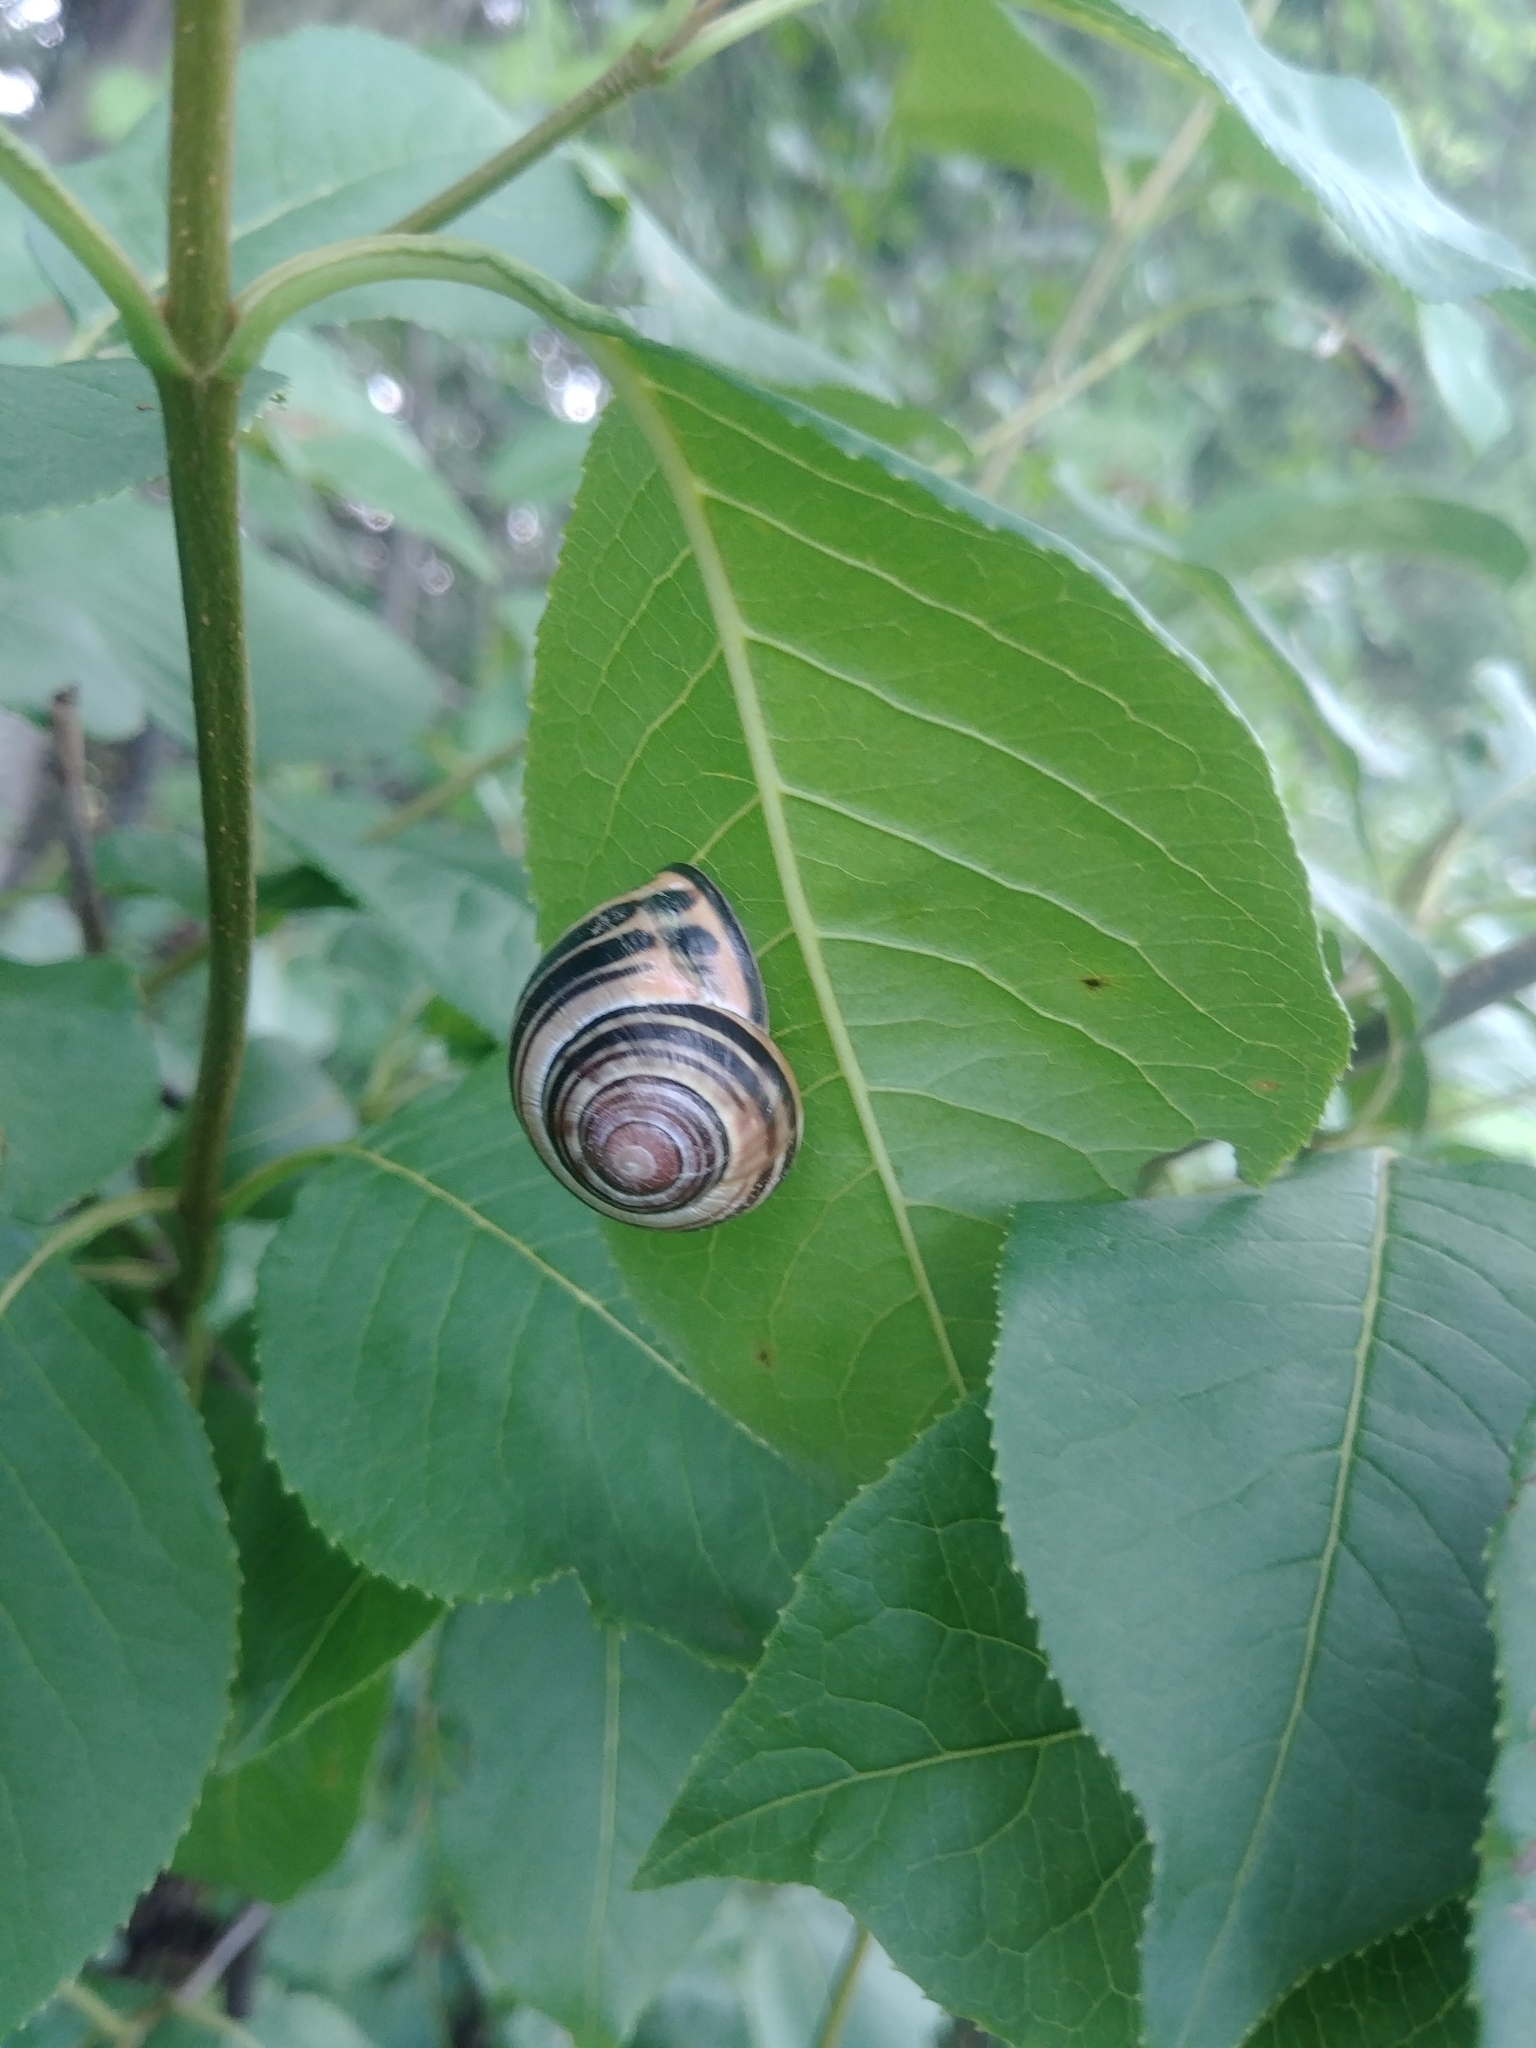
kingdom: Animalia
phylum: Mollusca
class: Gastropoda
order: Stylommatophora
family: Helicidae
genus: Cepaea
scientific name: Cepaea nemoralis
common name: Grovesnail
